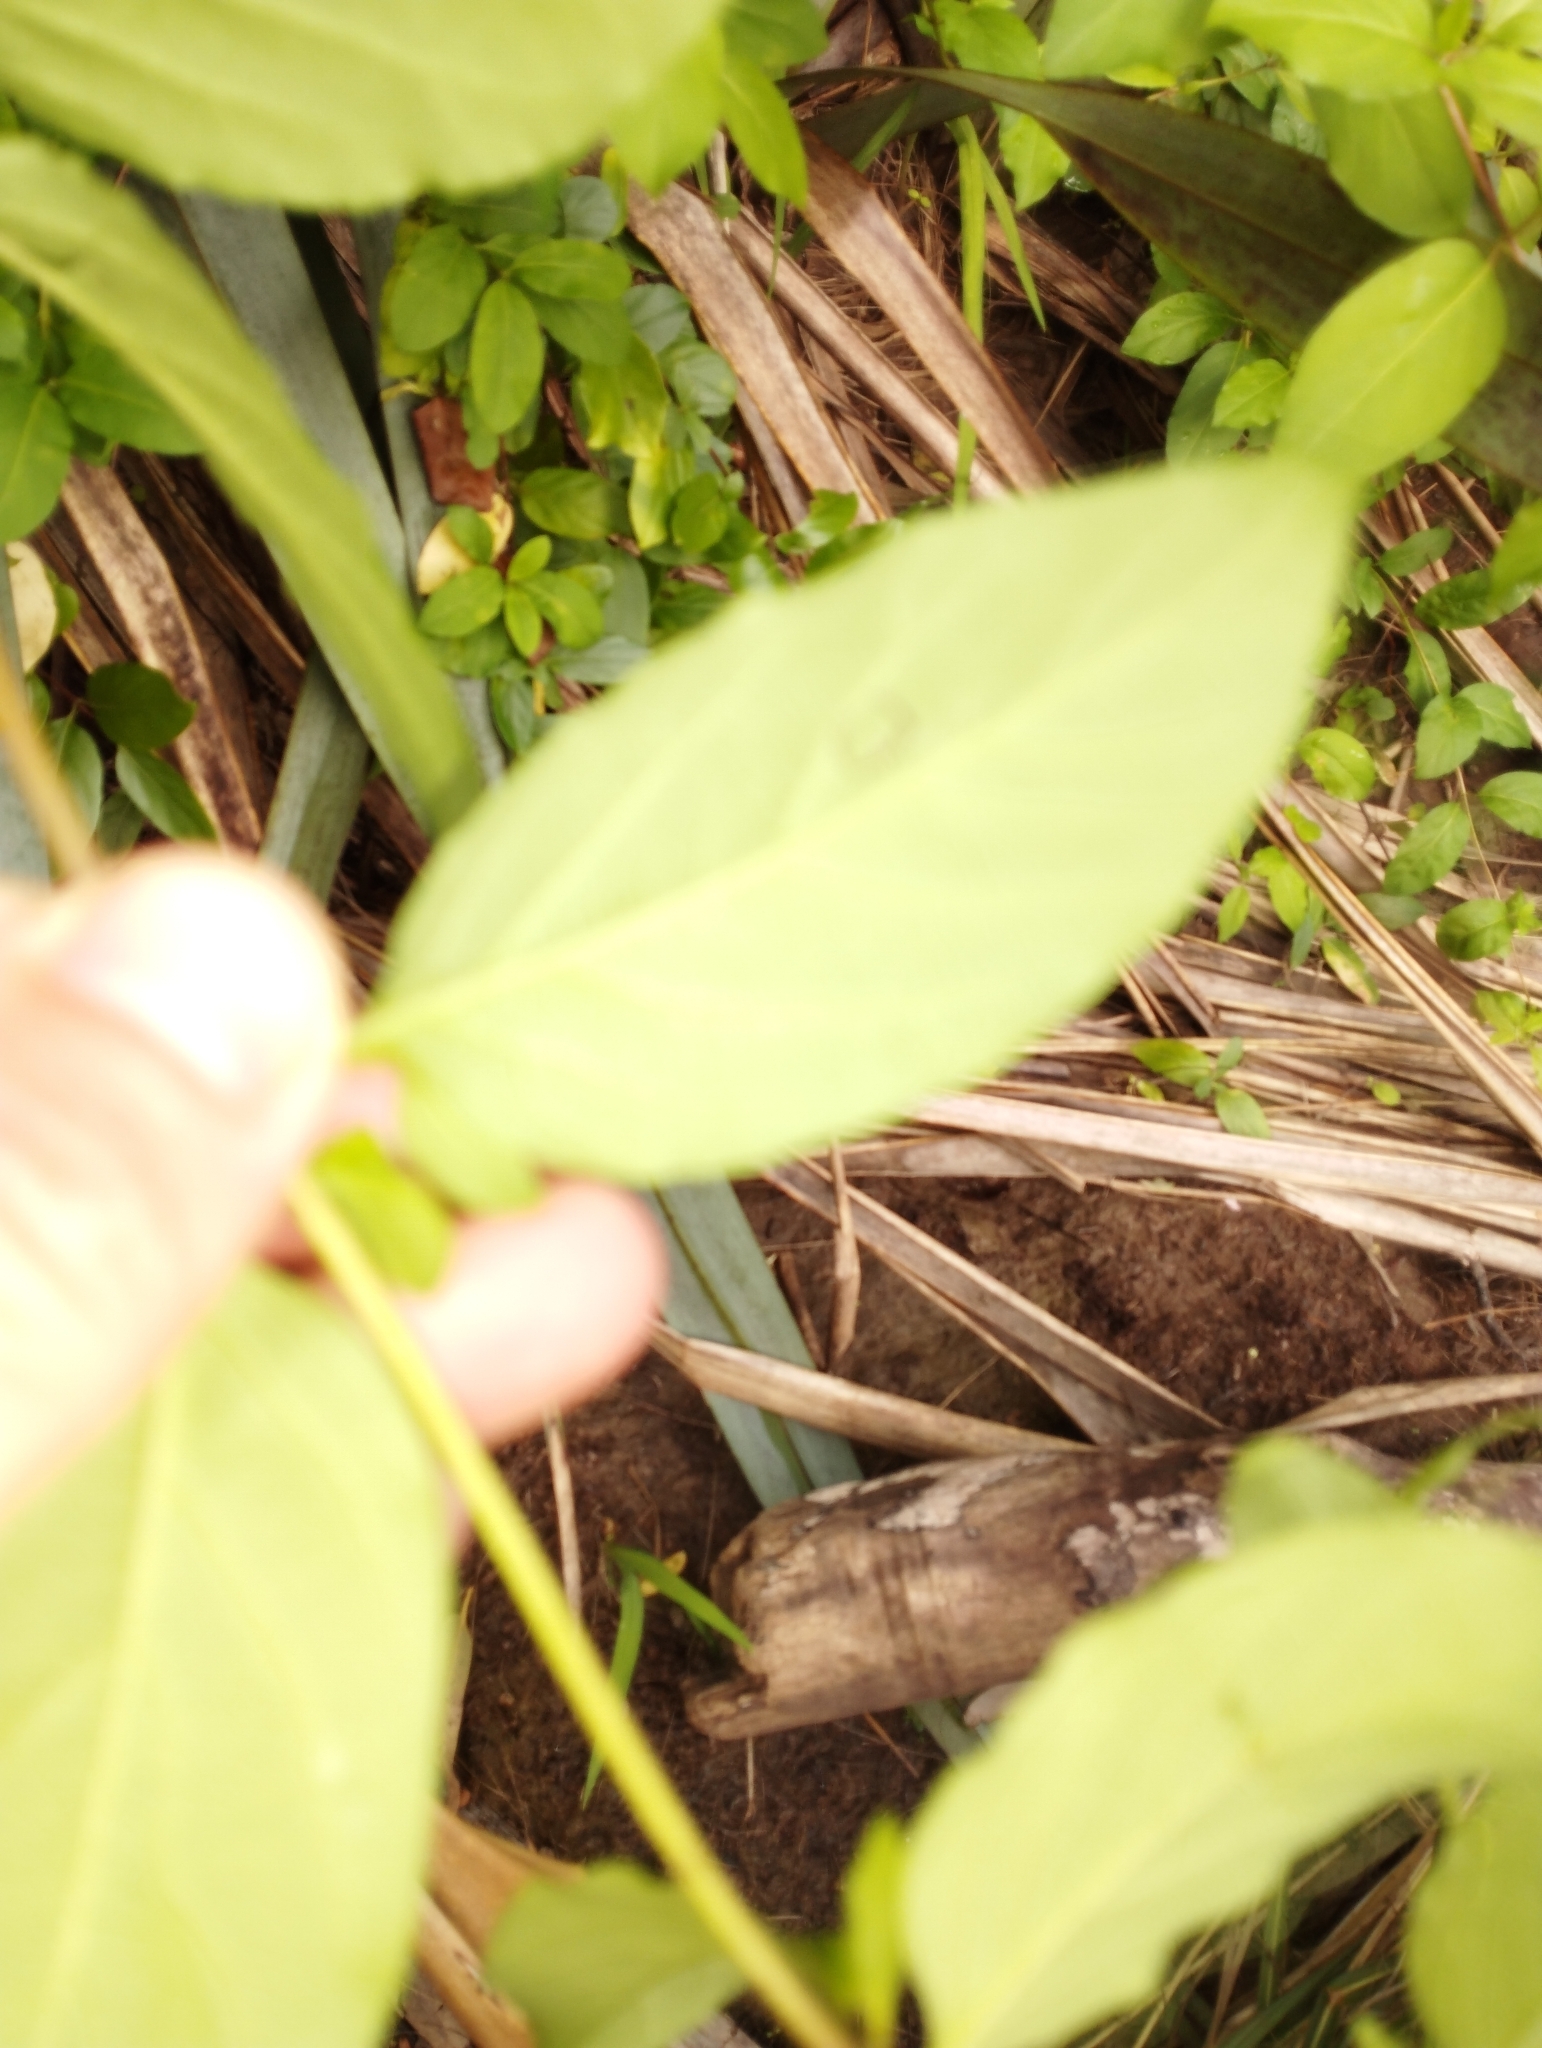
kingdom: Plantae
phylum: Tracheophyta
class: Magnoliopsida
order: Dipsacales
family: Caprifoliaceae
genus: Lonicera
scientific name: Lonicera japonica
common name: Japanese honeysuckle
